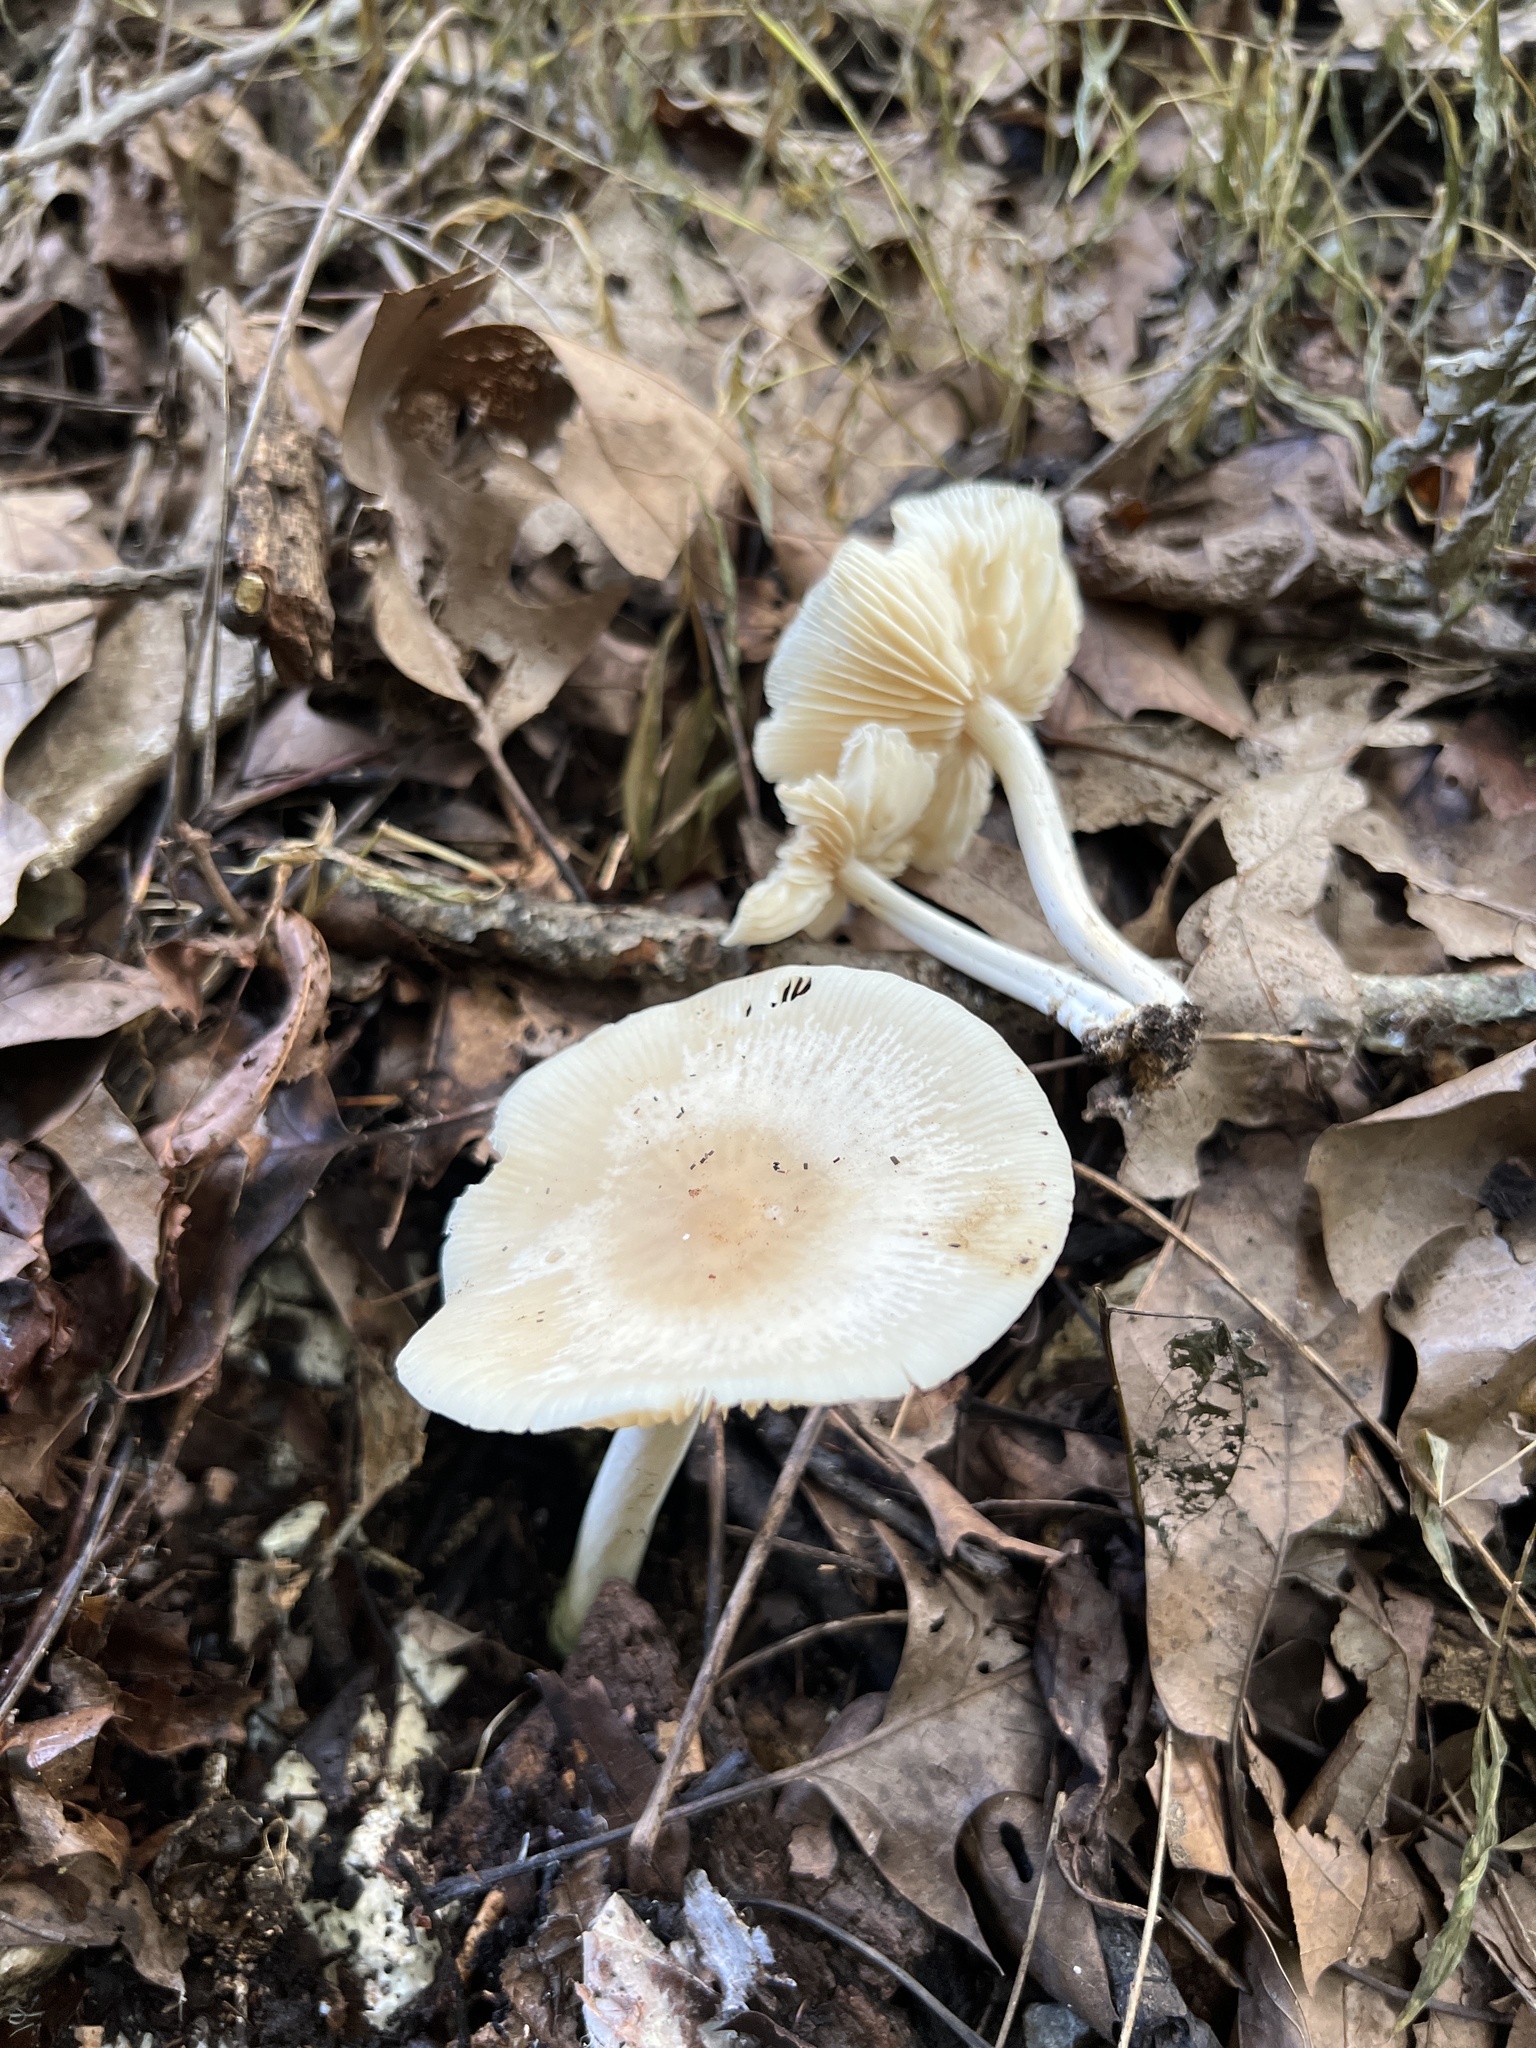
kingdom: Fungi
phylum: Basidiomycota
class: Agaricomycetes
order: Agaricales
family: Marasmiaceae
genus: Marasmius
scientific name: Marasmius nigrodiscus
